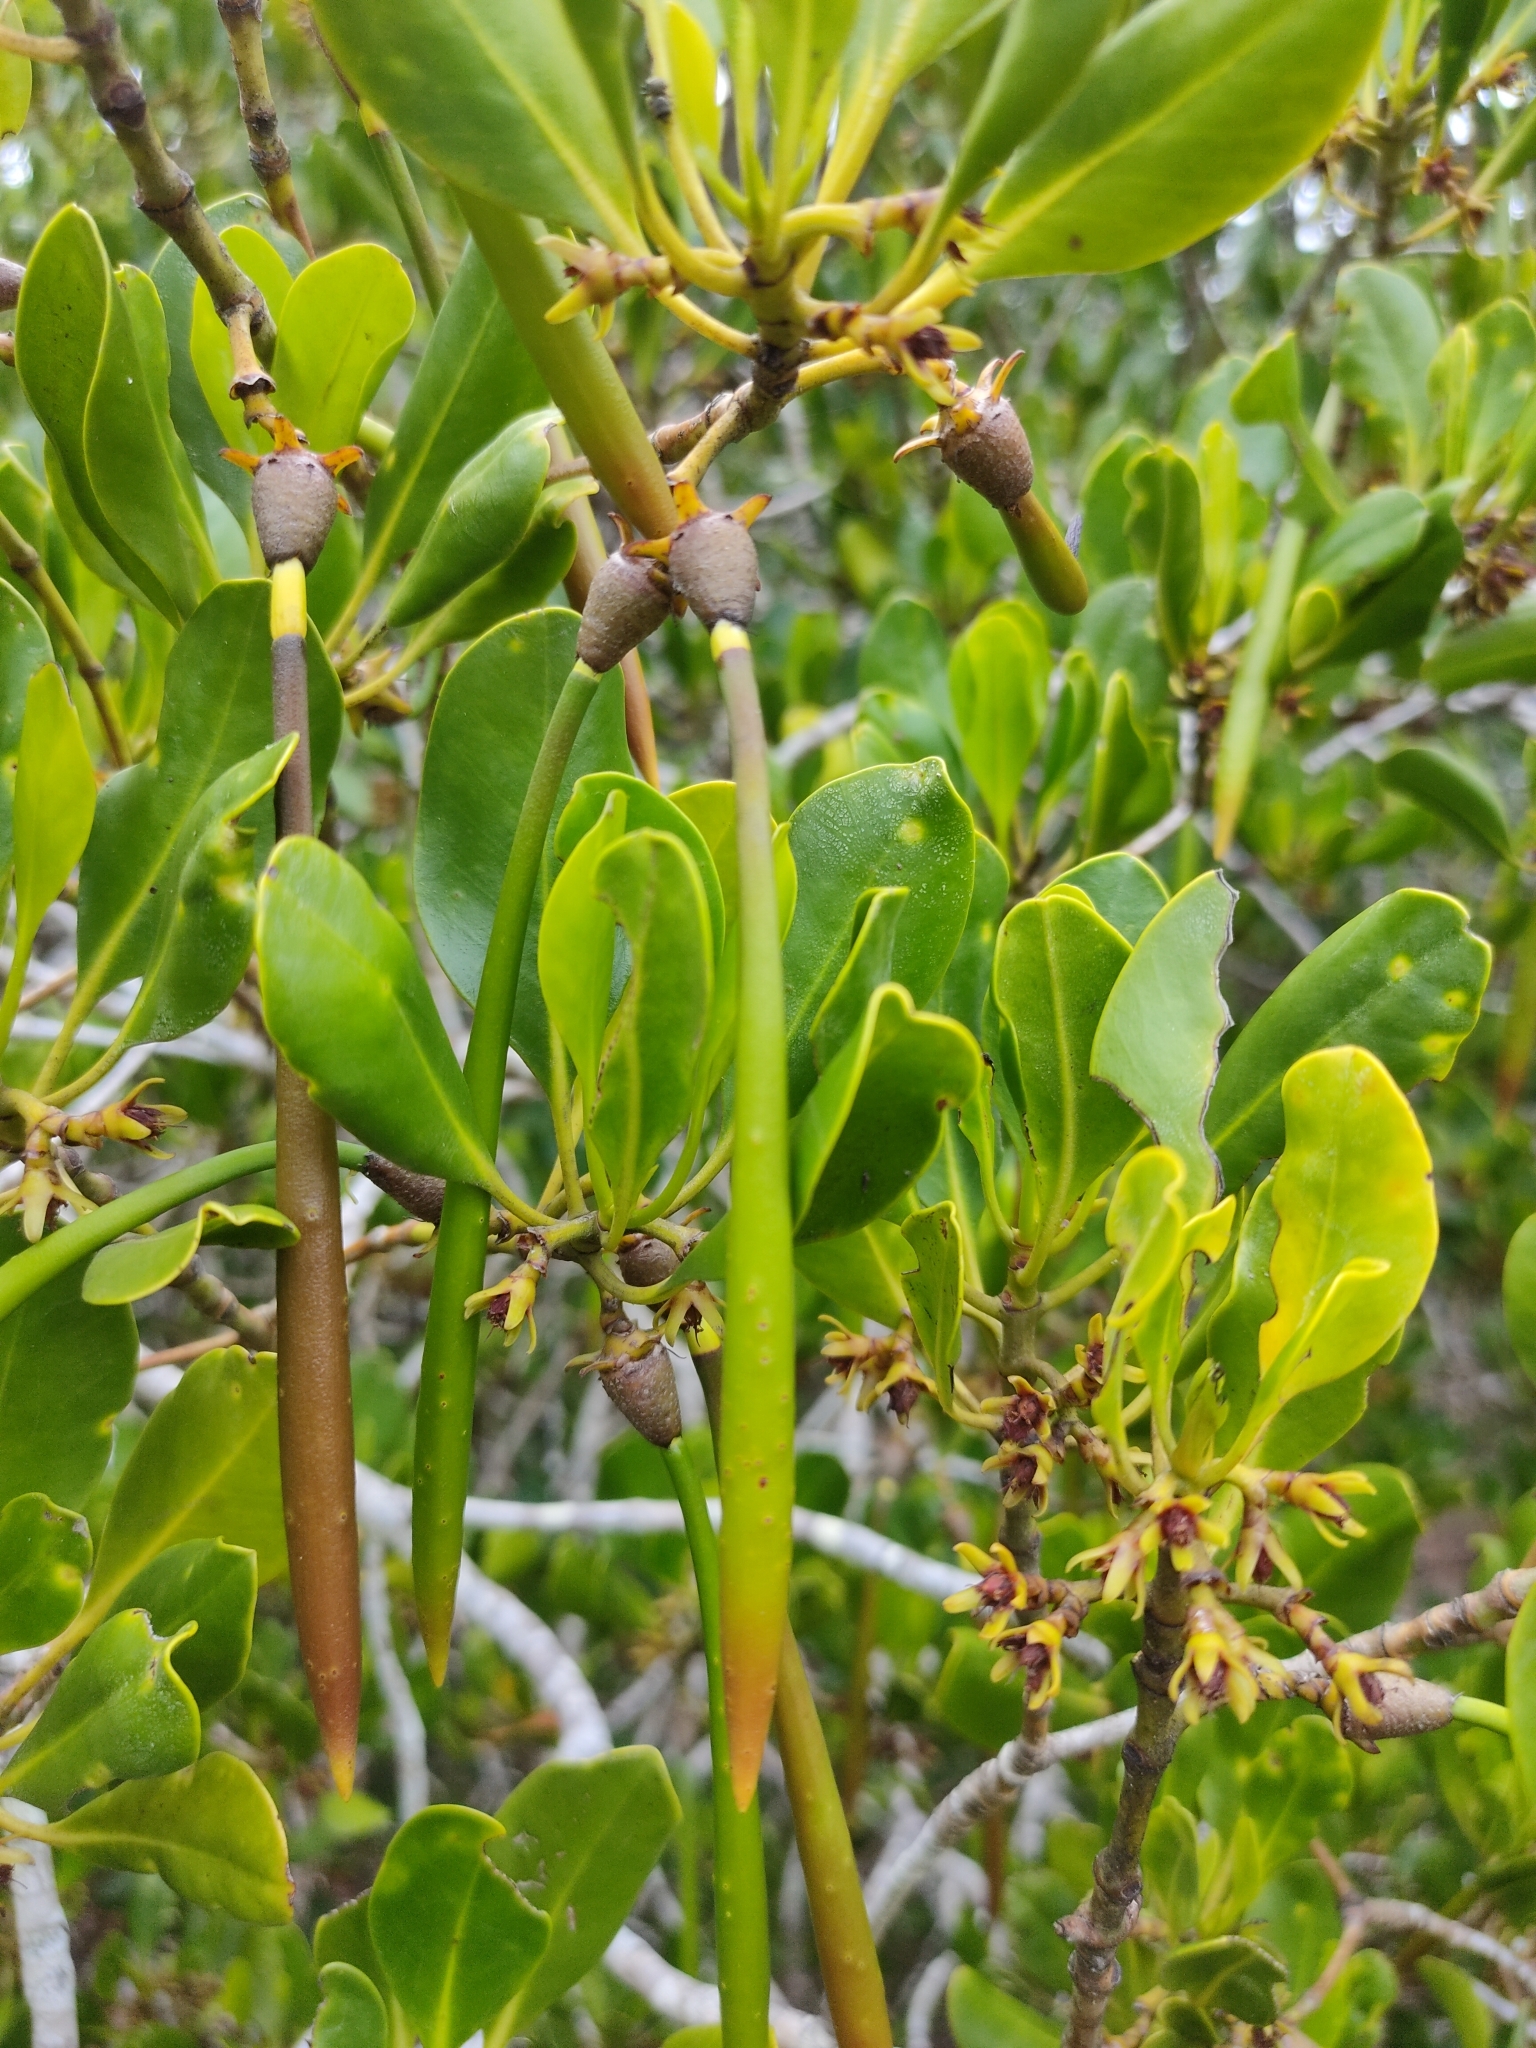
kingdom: Plantae
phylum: Tracheophyta
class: Magnoliopsida
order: Malpighiales
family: Rhizophoraceae
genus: Ceriops
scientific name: Ceriops australis
